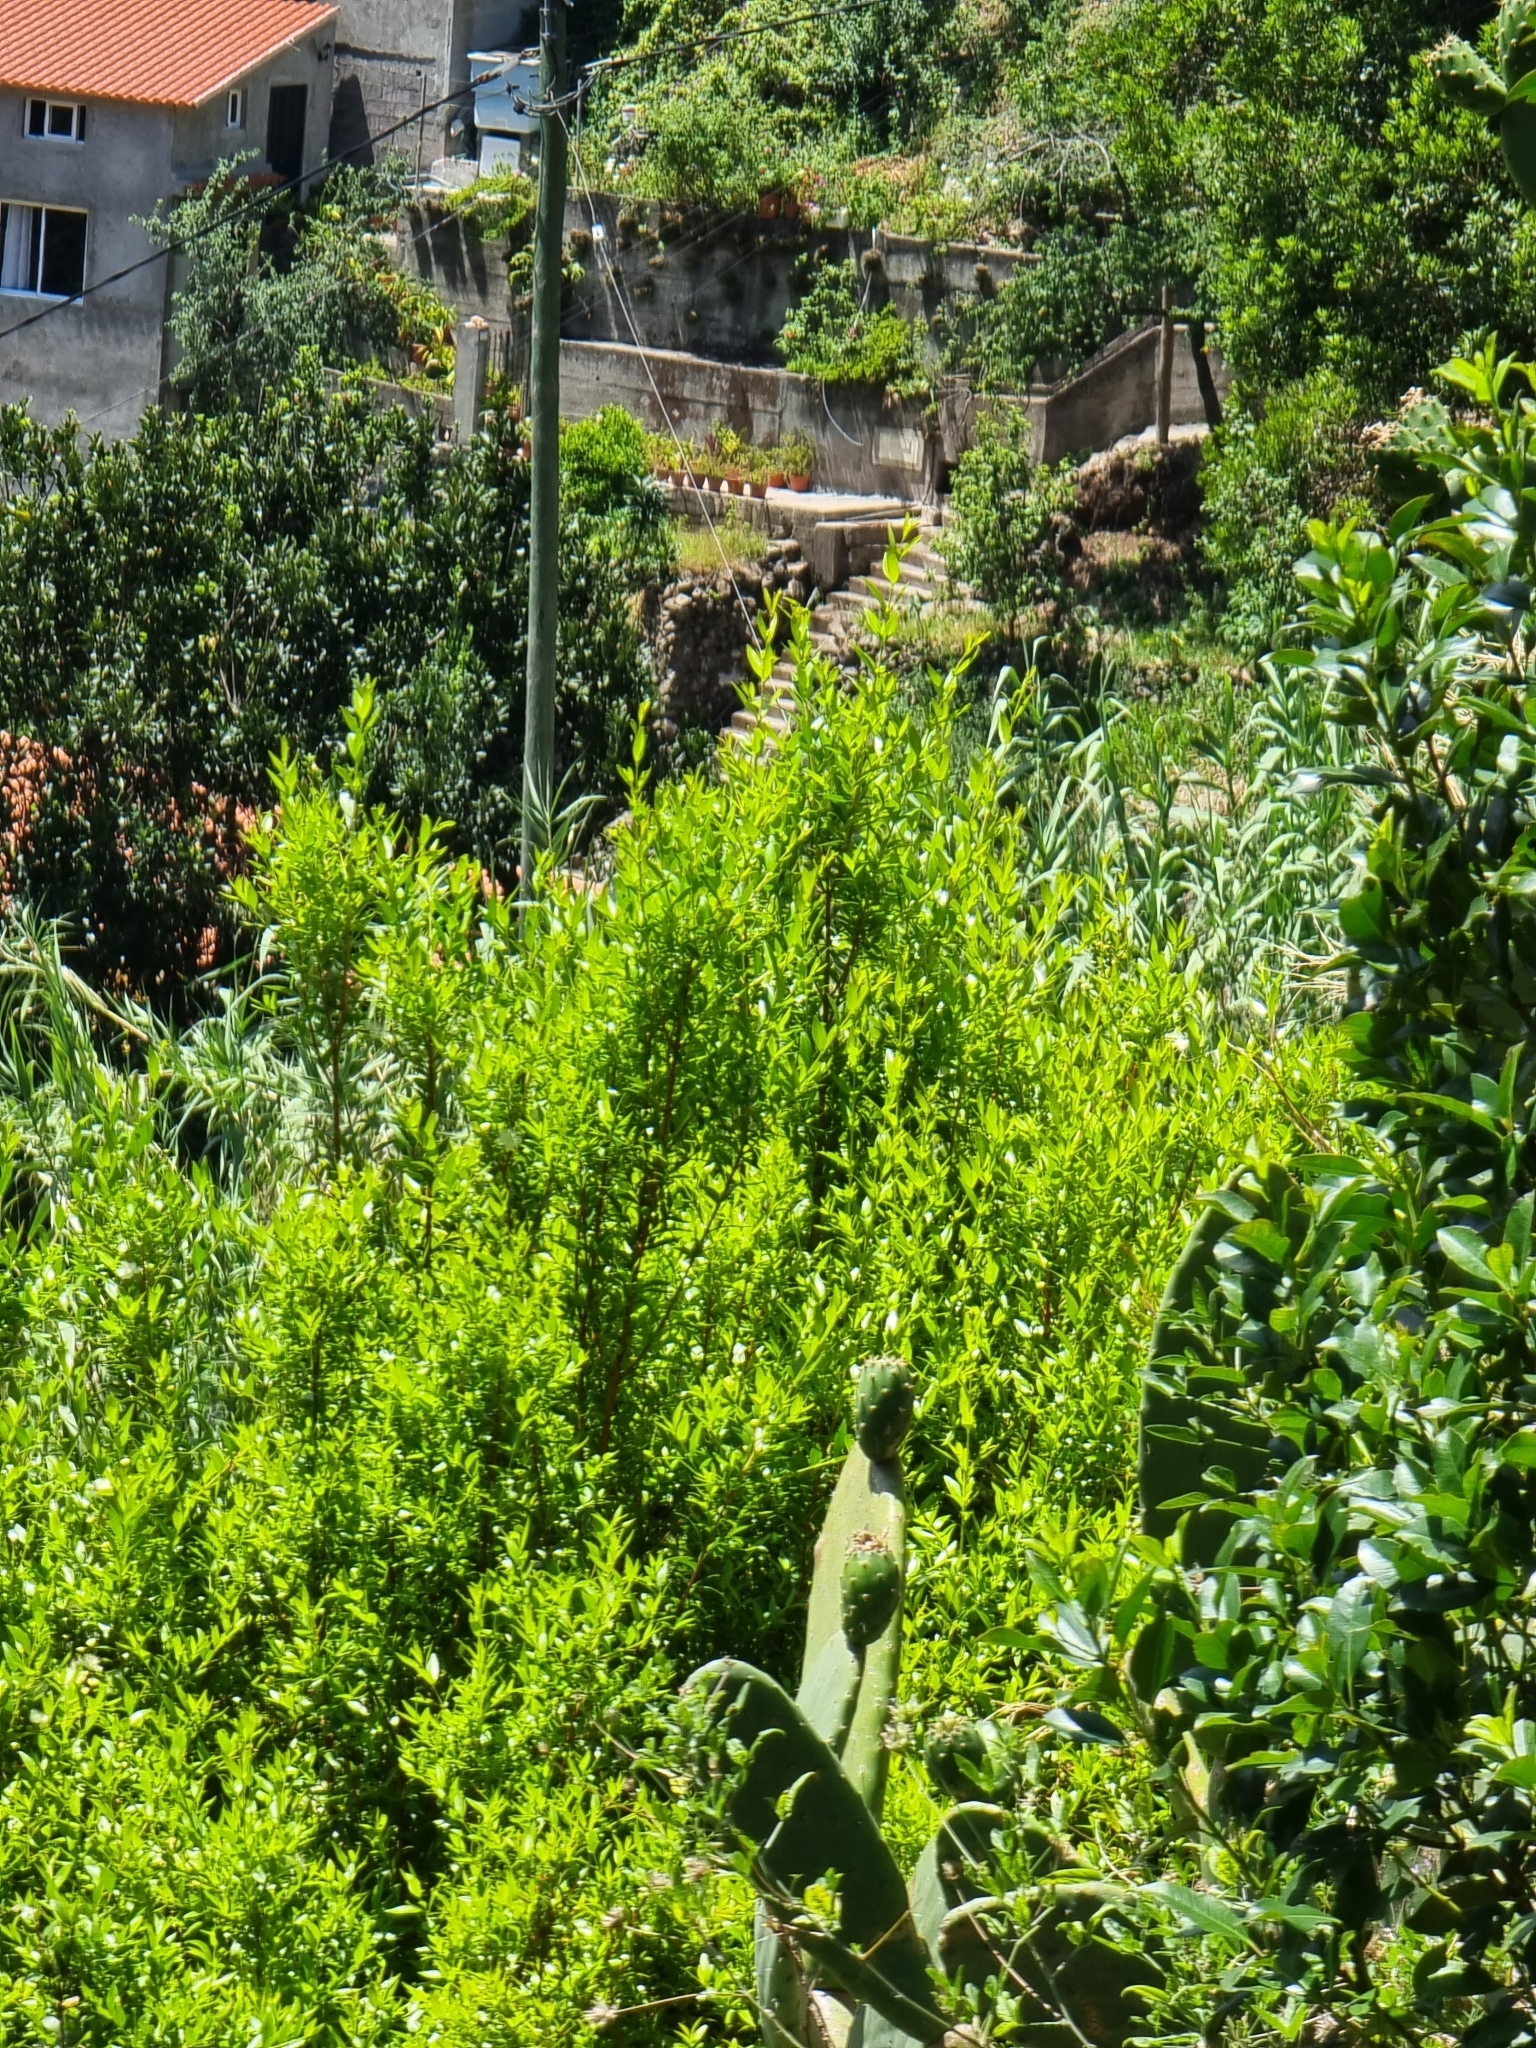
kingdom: Plantae
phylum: Tracheophyta
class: Magnoliopsida
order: Myrtales
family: Myrtaceae
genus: Myrtus
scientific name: Myrtus communis
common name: Myrtle
